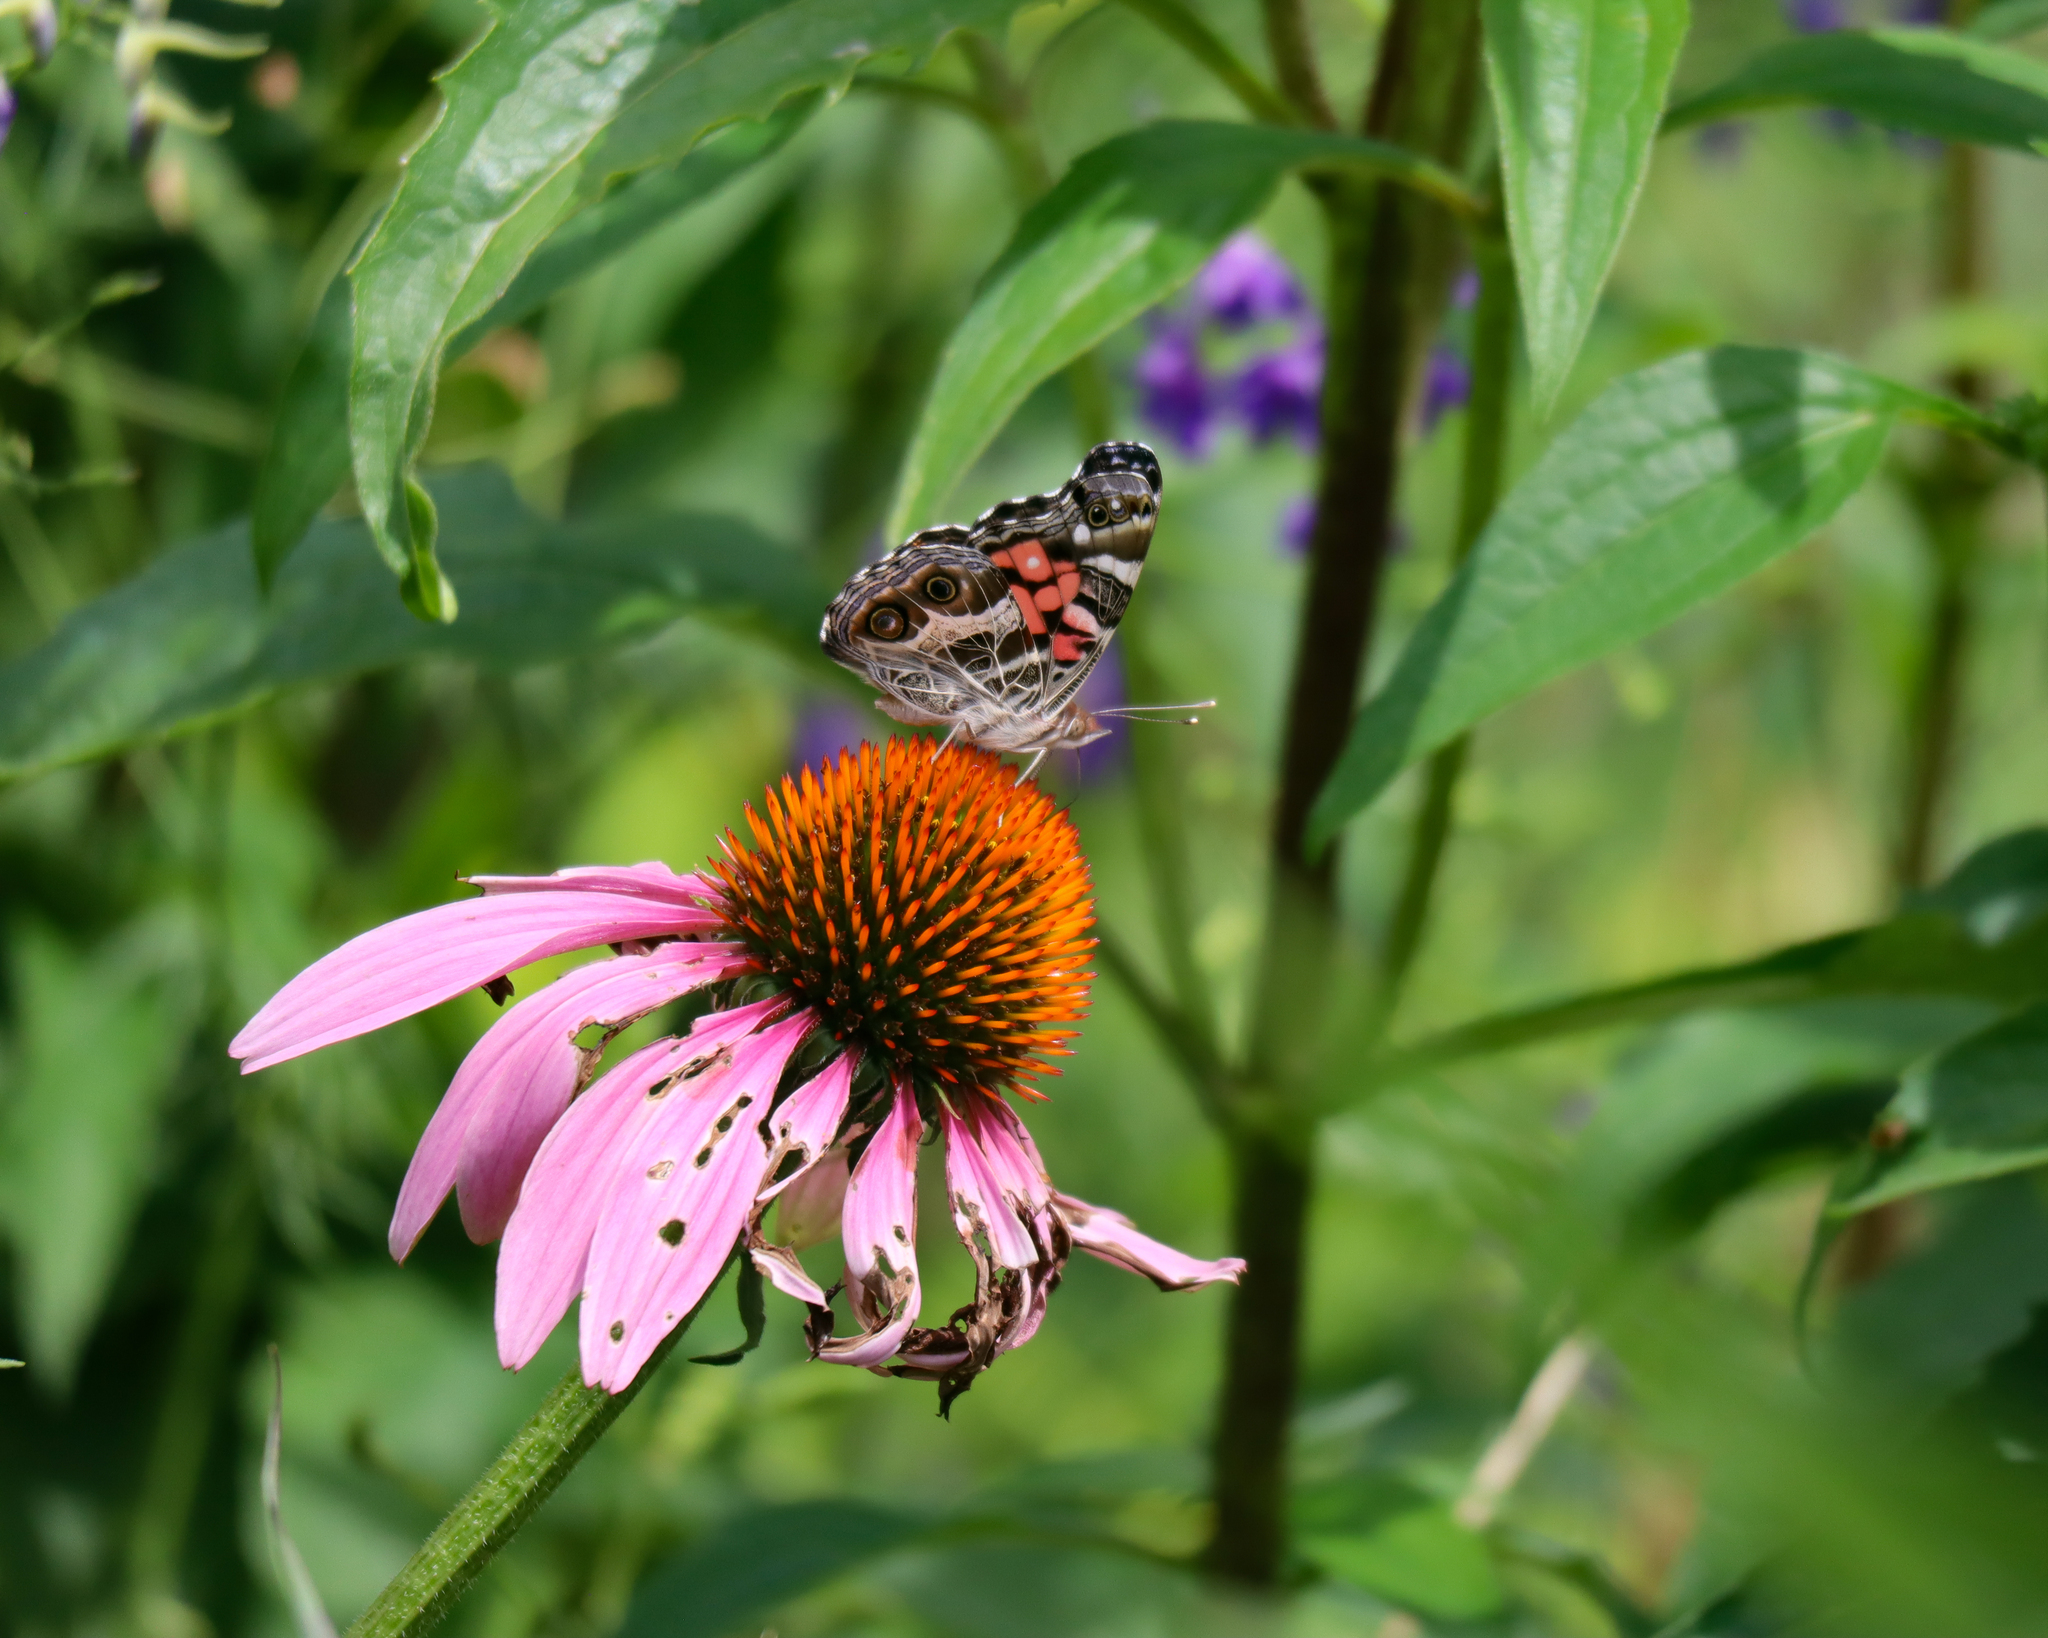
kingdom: Animalia
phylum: Arthropoda
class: Insecta
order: Lepidoptera
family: Nymphalidae
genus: Vanessa
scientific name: Vanessa virginiensis
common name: American lady
